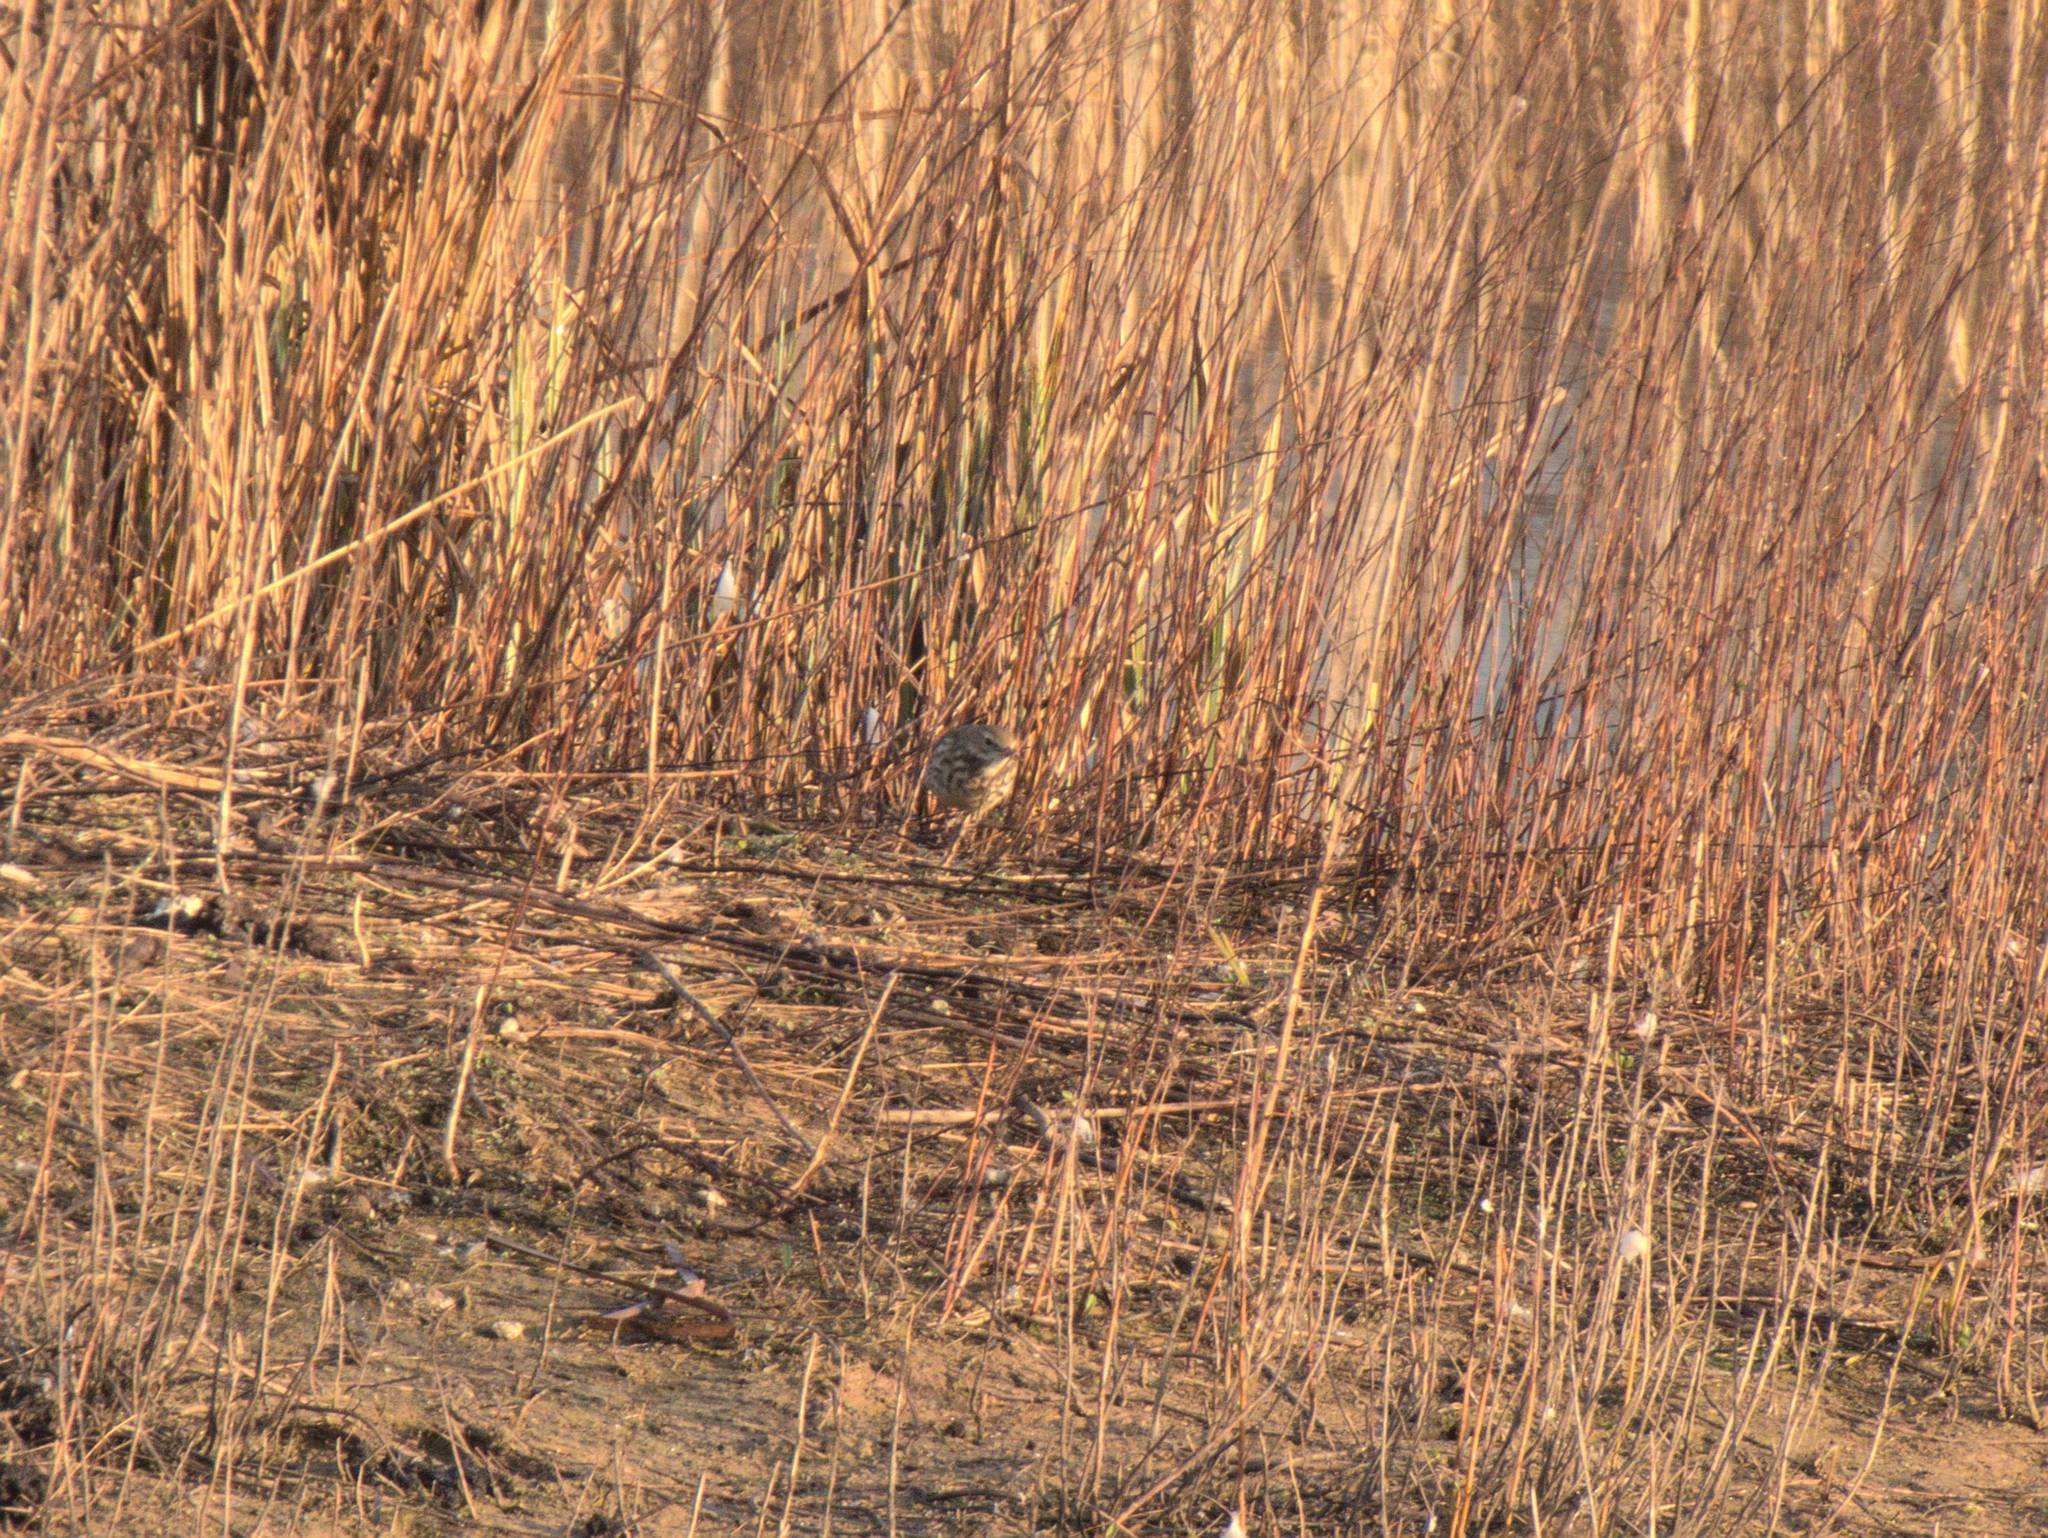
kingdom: Animalia
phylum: Chordata
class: Aves
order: Passeriformes
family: Motacillidae
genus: Anthus
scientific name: Anthus spinoletta
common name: Water pipit
